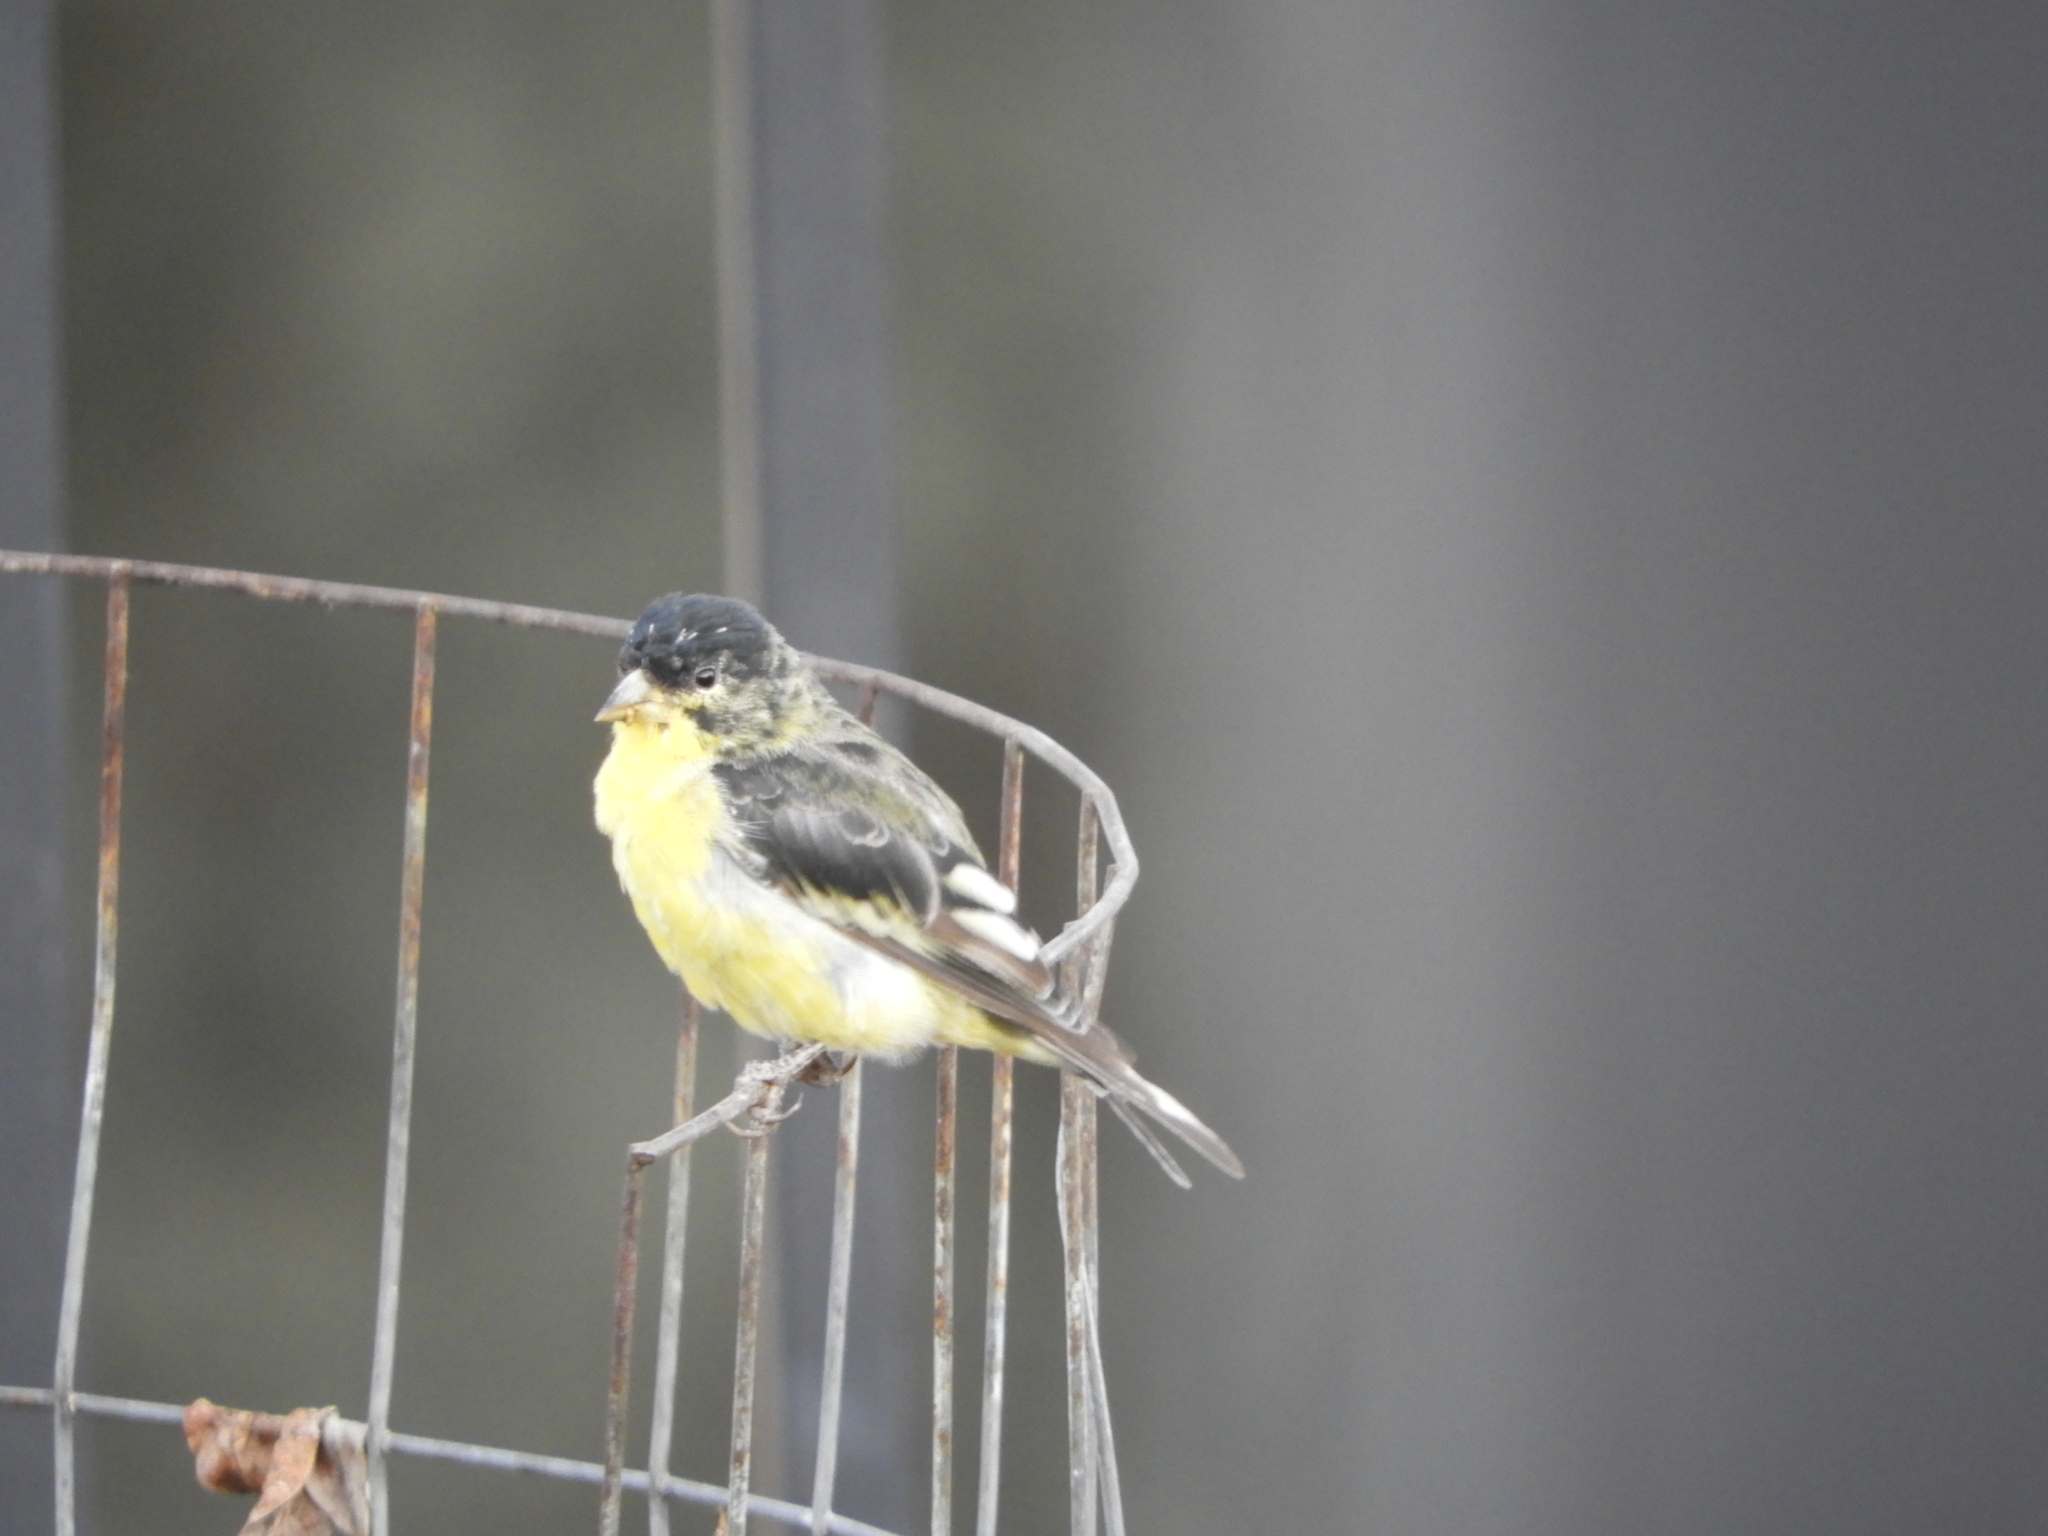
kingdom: Animalia
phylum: Chordata
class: Aves
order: Passeriformes
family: Fringillidae
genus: Spinus
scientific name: Spinus psaltria
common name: Lesser goldfinch
